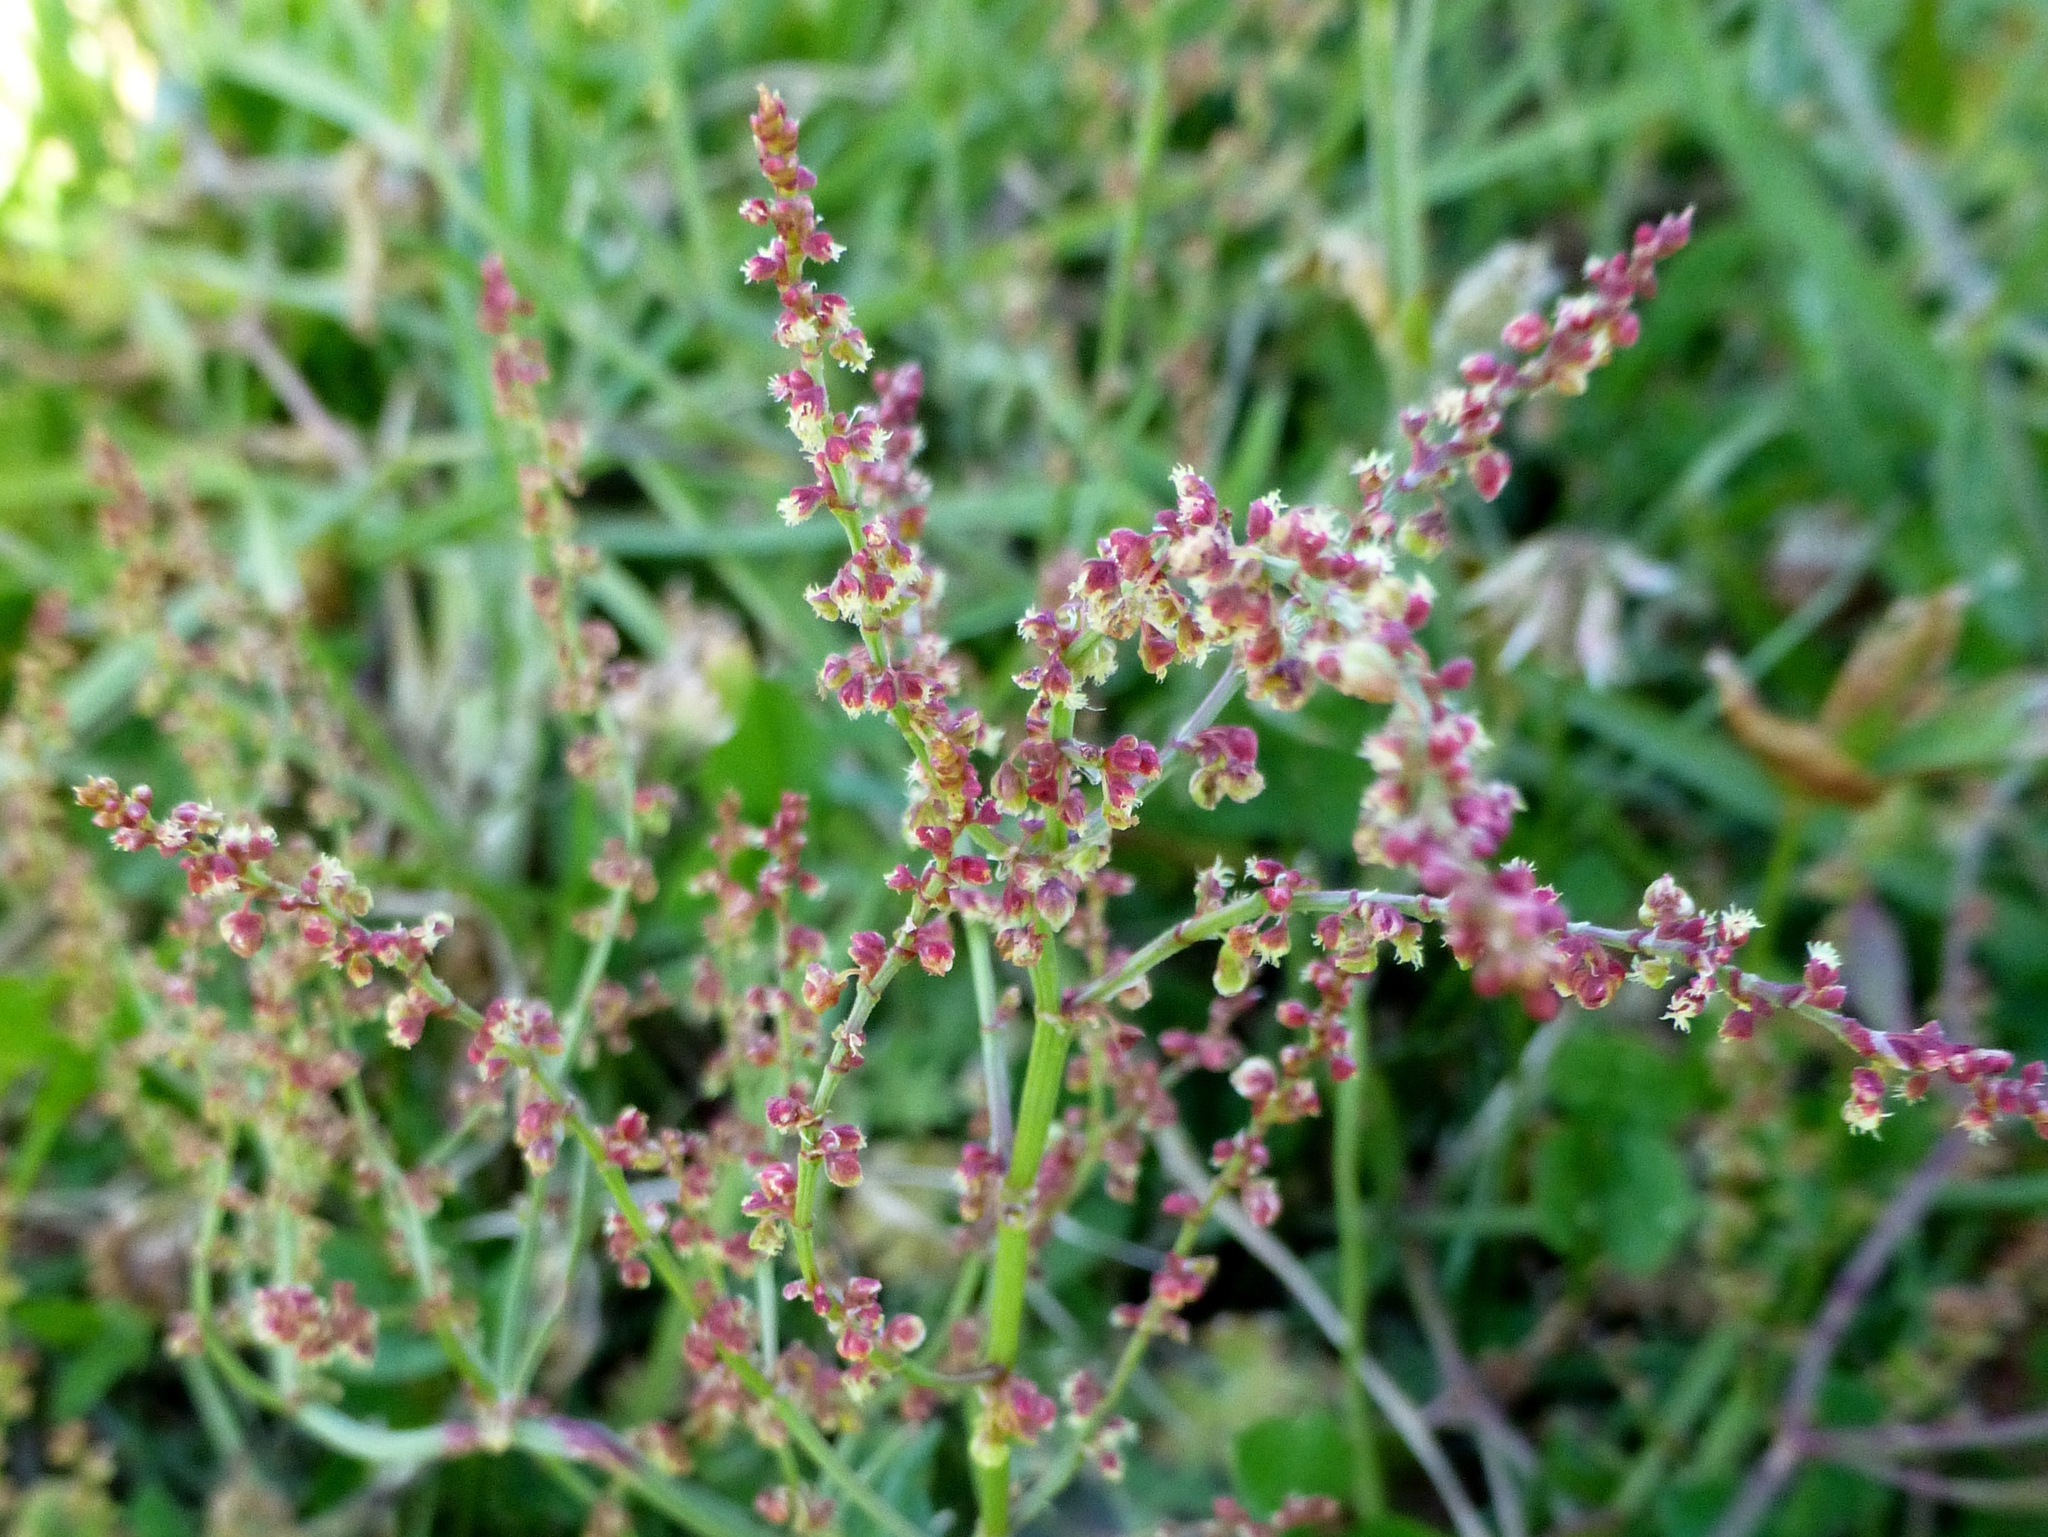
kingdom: Plantae
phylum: Tracheophyta
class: Magnoliopsida
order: Caryophyllales
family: Polygonaceae
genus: Rumex
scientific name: Rumex acetosella
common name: Common sheep sorrel
